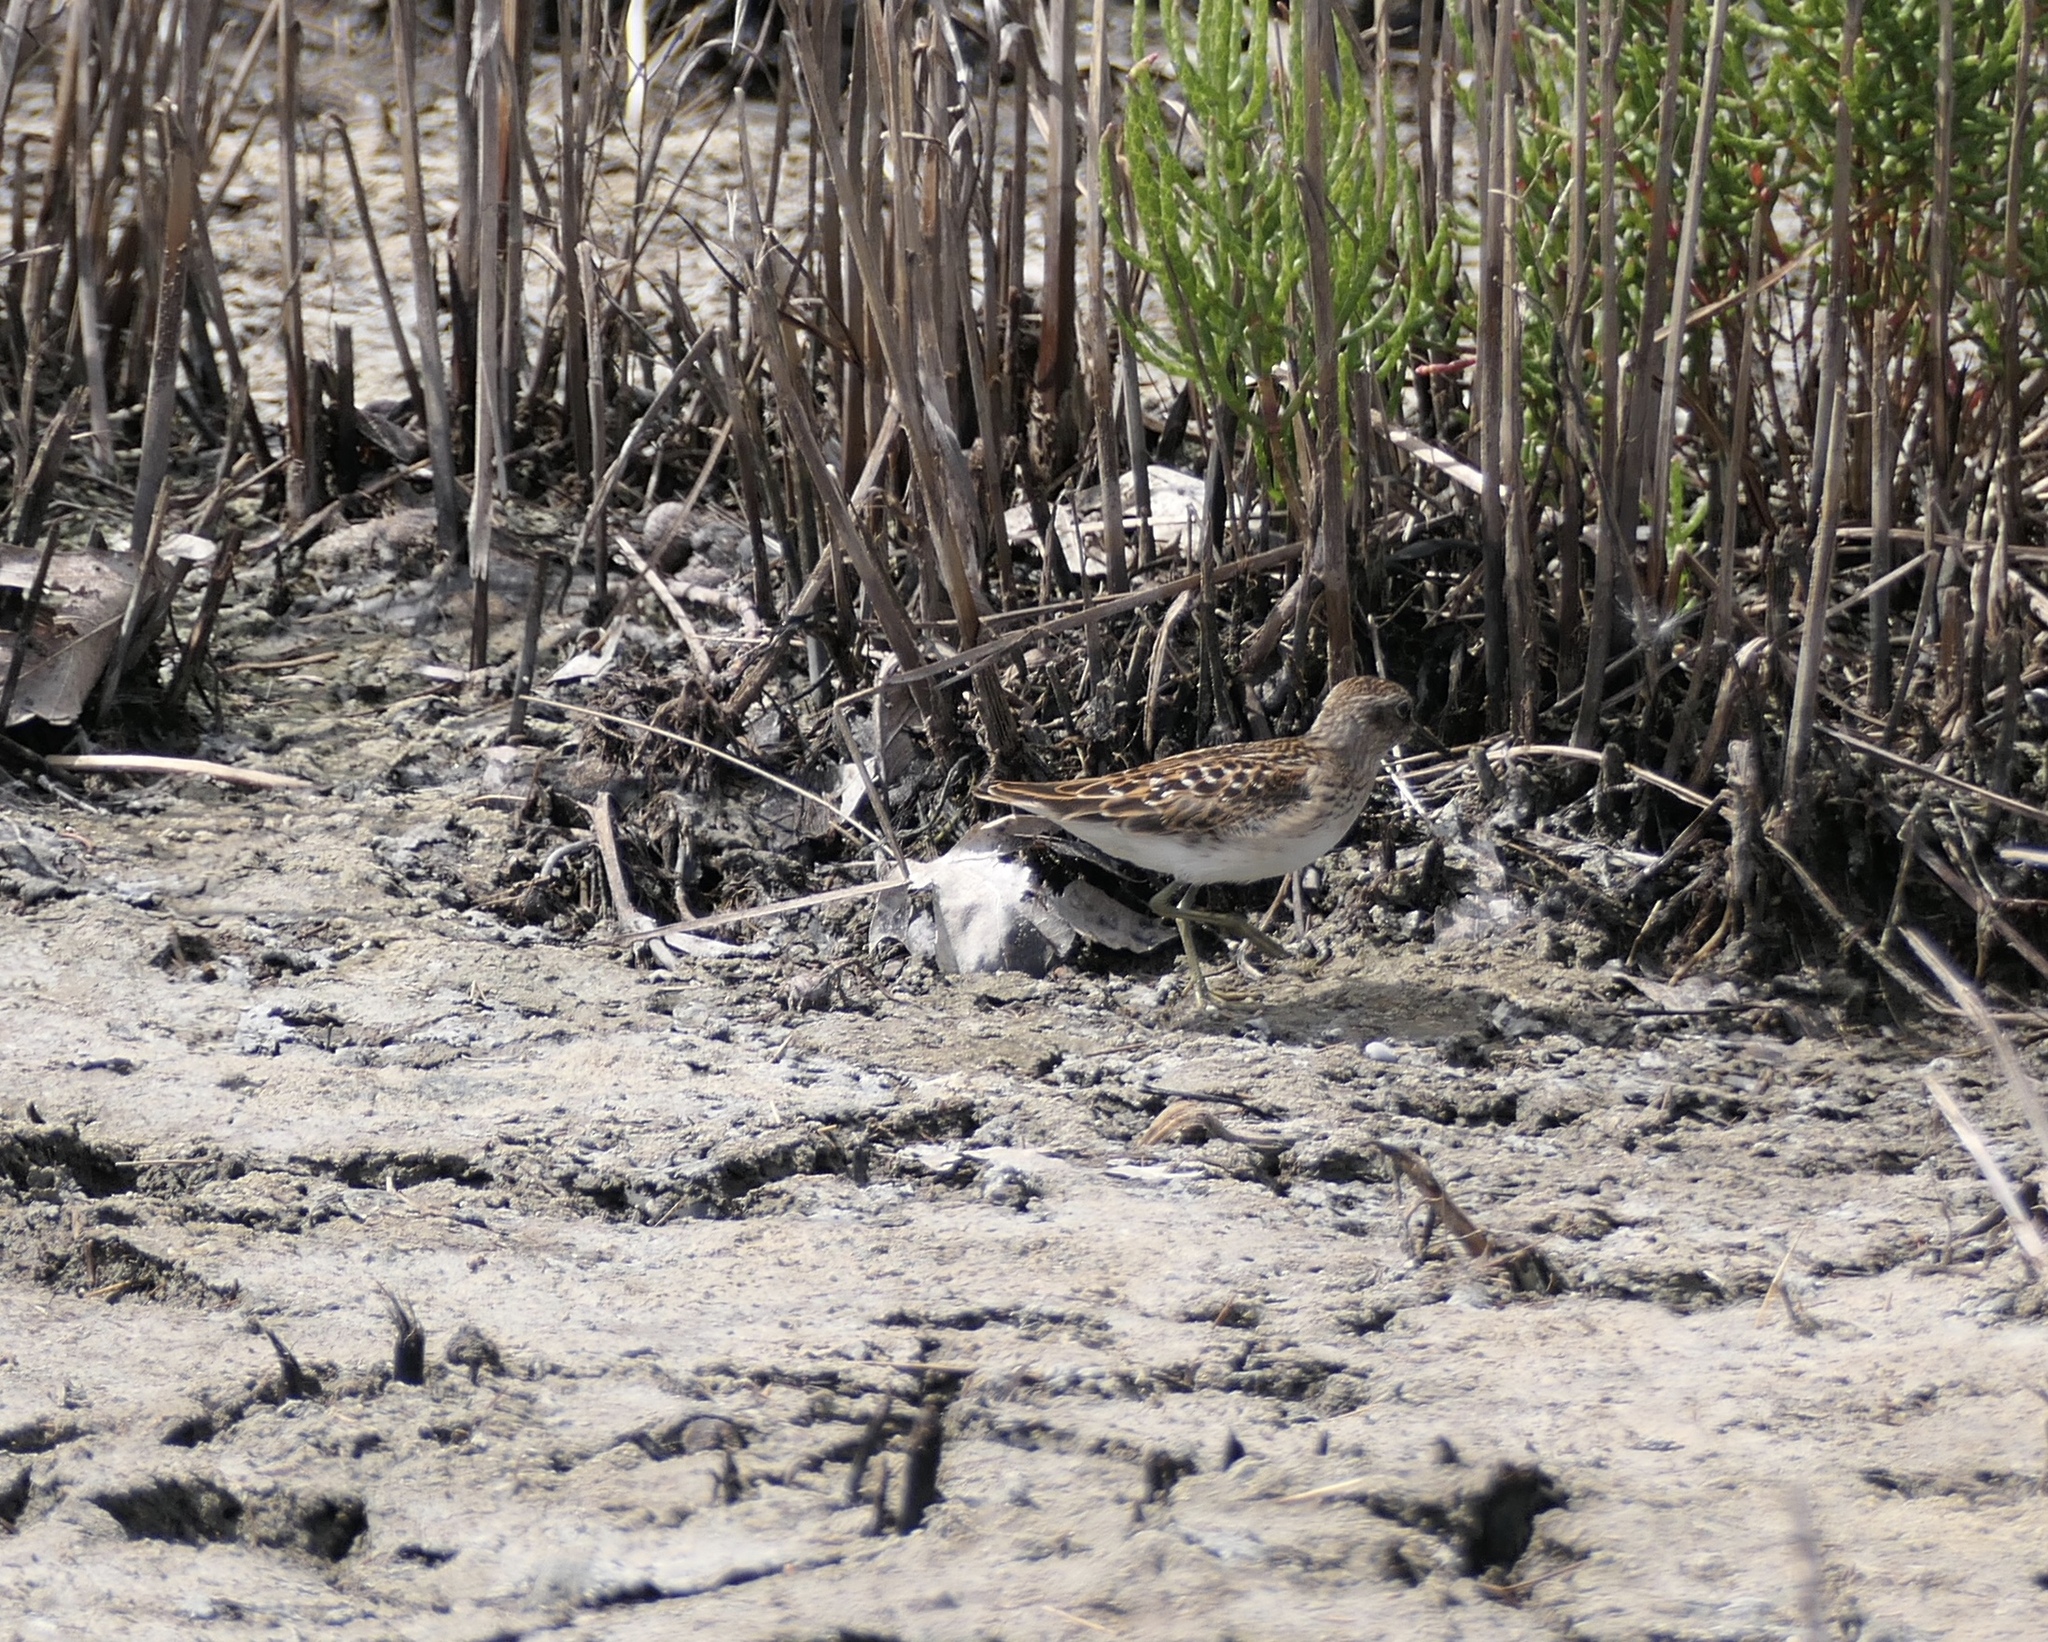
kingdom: Animalia
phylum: Chordata
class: Aves
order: Charadriiformes
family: Scolopacidae
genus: Calidris
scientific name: Calidris minutilla
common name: Least sandpiper
